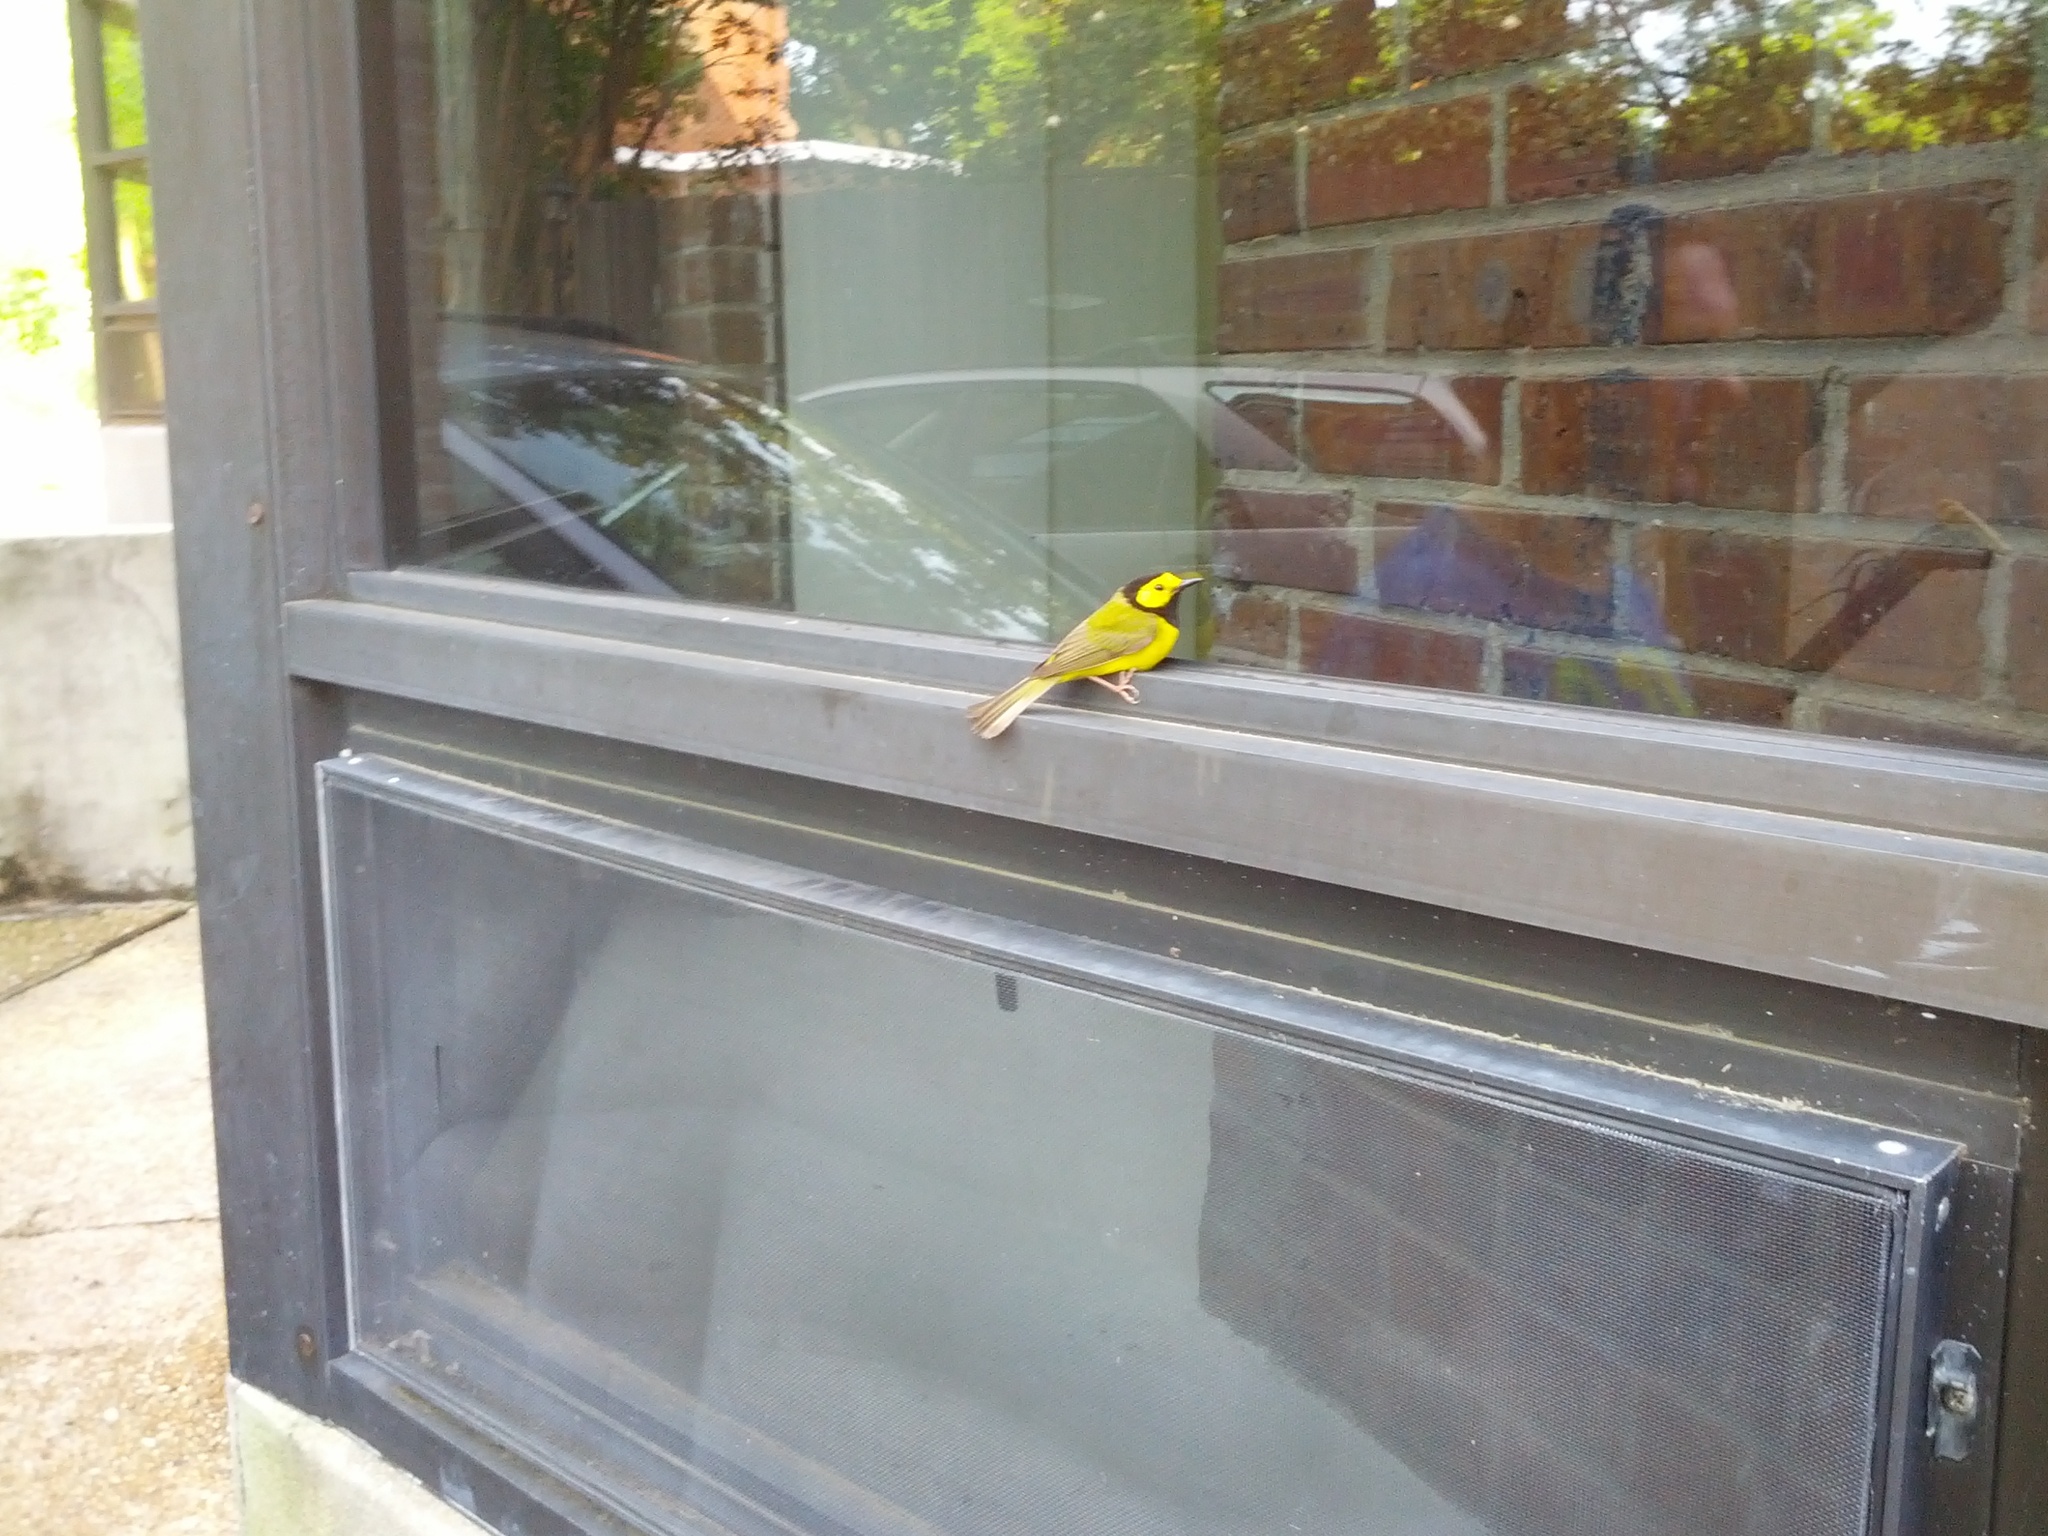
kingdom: Animalia
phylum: Chordata
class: Aves
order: Passeriformes
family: Parulidae
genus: Setophaga
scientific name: Setophaga citrina
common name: Hooded warbler
